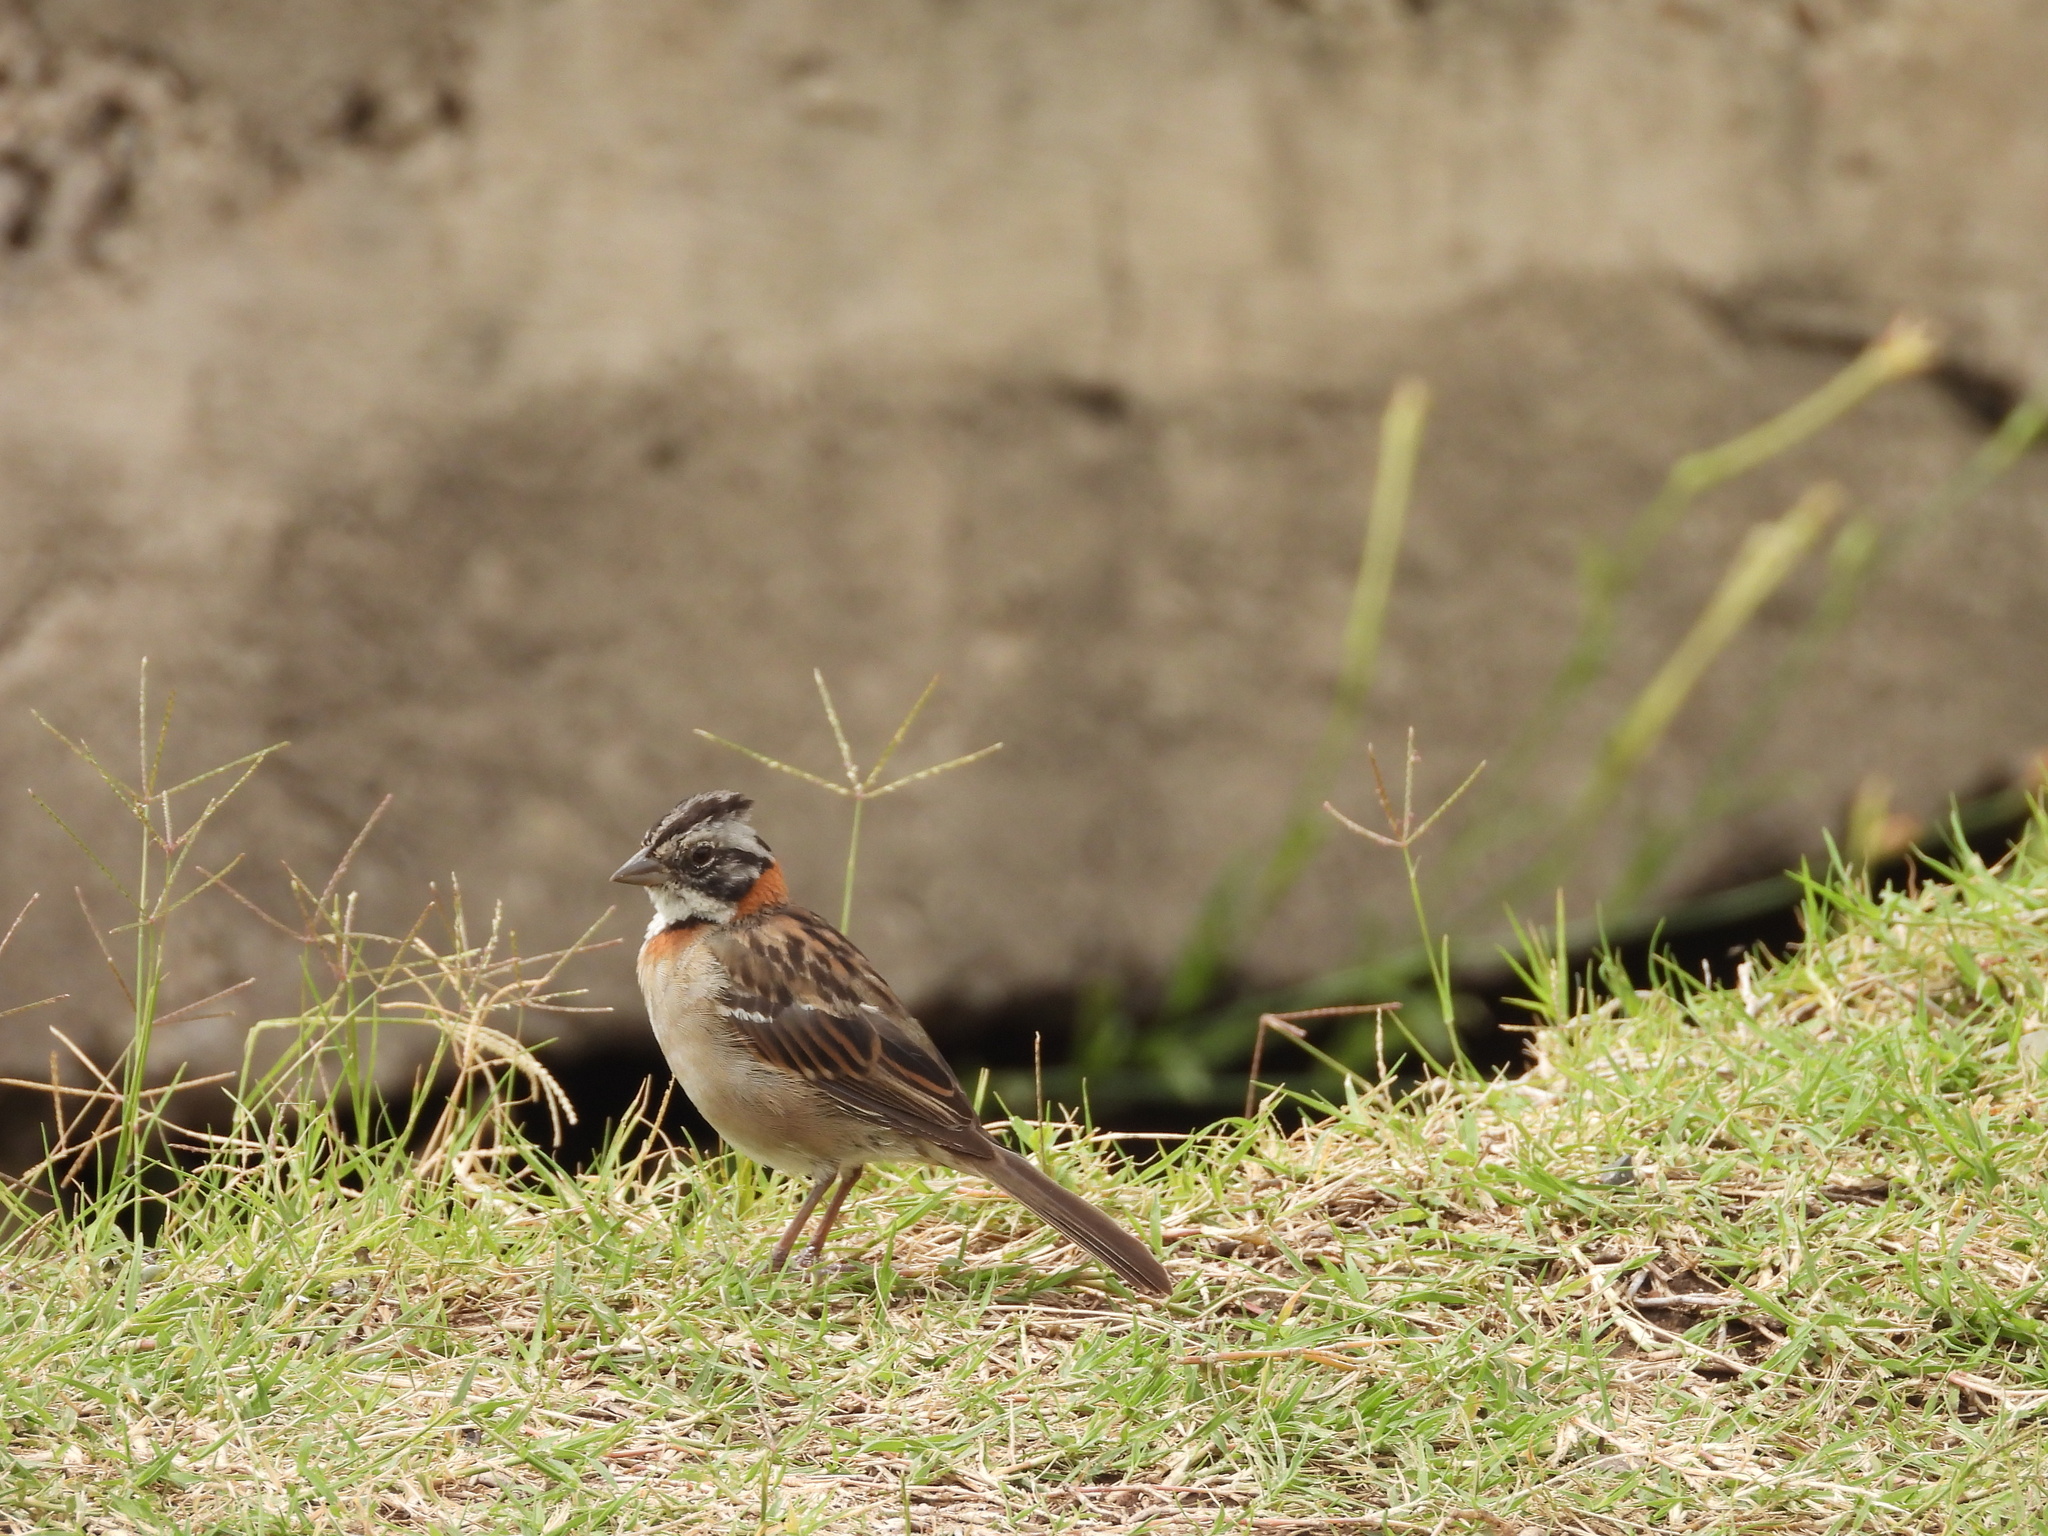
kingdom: Animalia
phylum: Chordata
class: Aves
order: Passeriformes
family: Passerellidae
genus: Zonotrichia
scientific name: Zonotrichia capensis
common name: Rufous-collared sparrow
